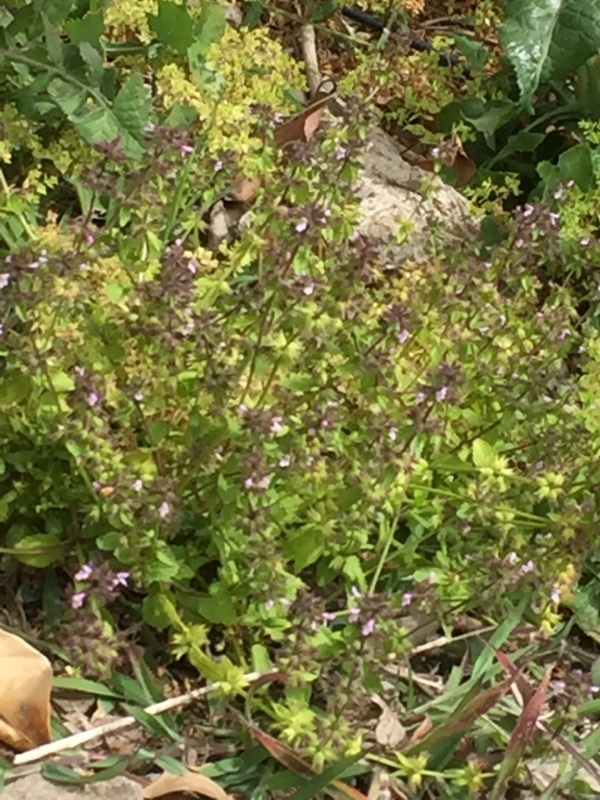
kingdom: Plantae
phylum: Tracheophyta
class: Magnoliopsida
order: Lamiales
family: Lamiaceae
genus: Stachys
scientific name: Stachys arvensis
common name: Field woundwort
